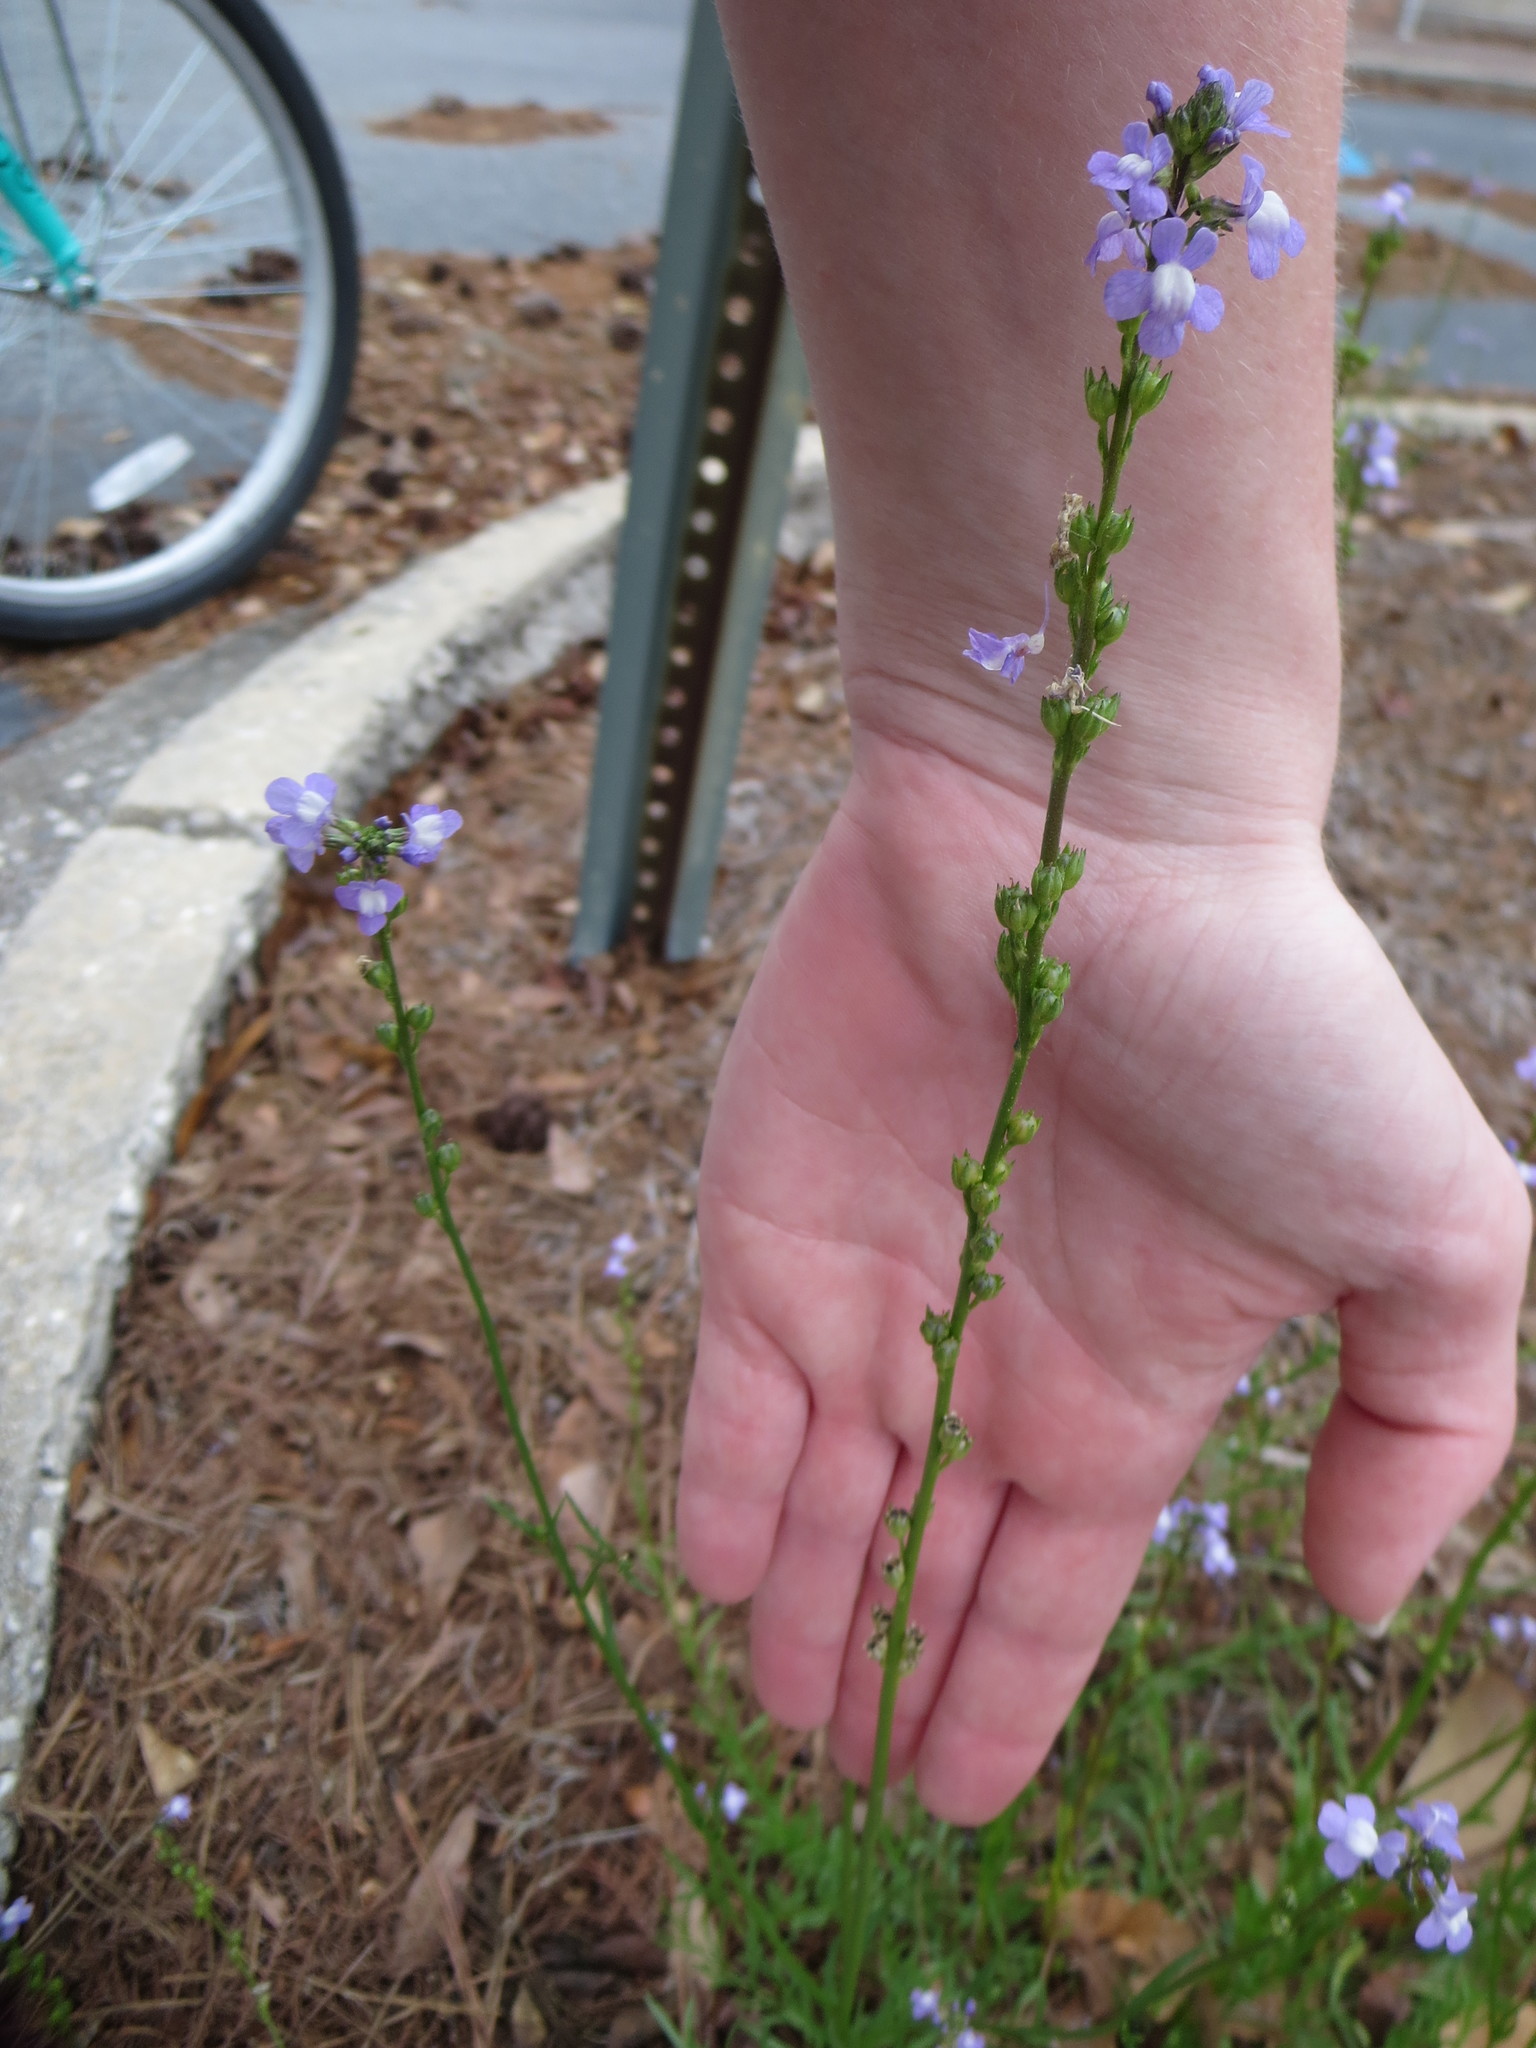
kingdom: Plantae
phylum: Tracheophyta
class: Magnoliopsida
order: Lamiales
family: Plantaginaceae
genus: Nuttallanthus
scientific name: Nuttallanthus canadensis
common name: Blue toadflax
